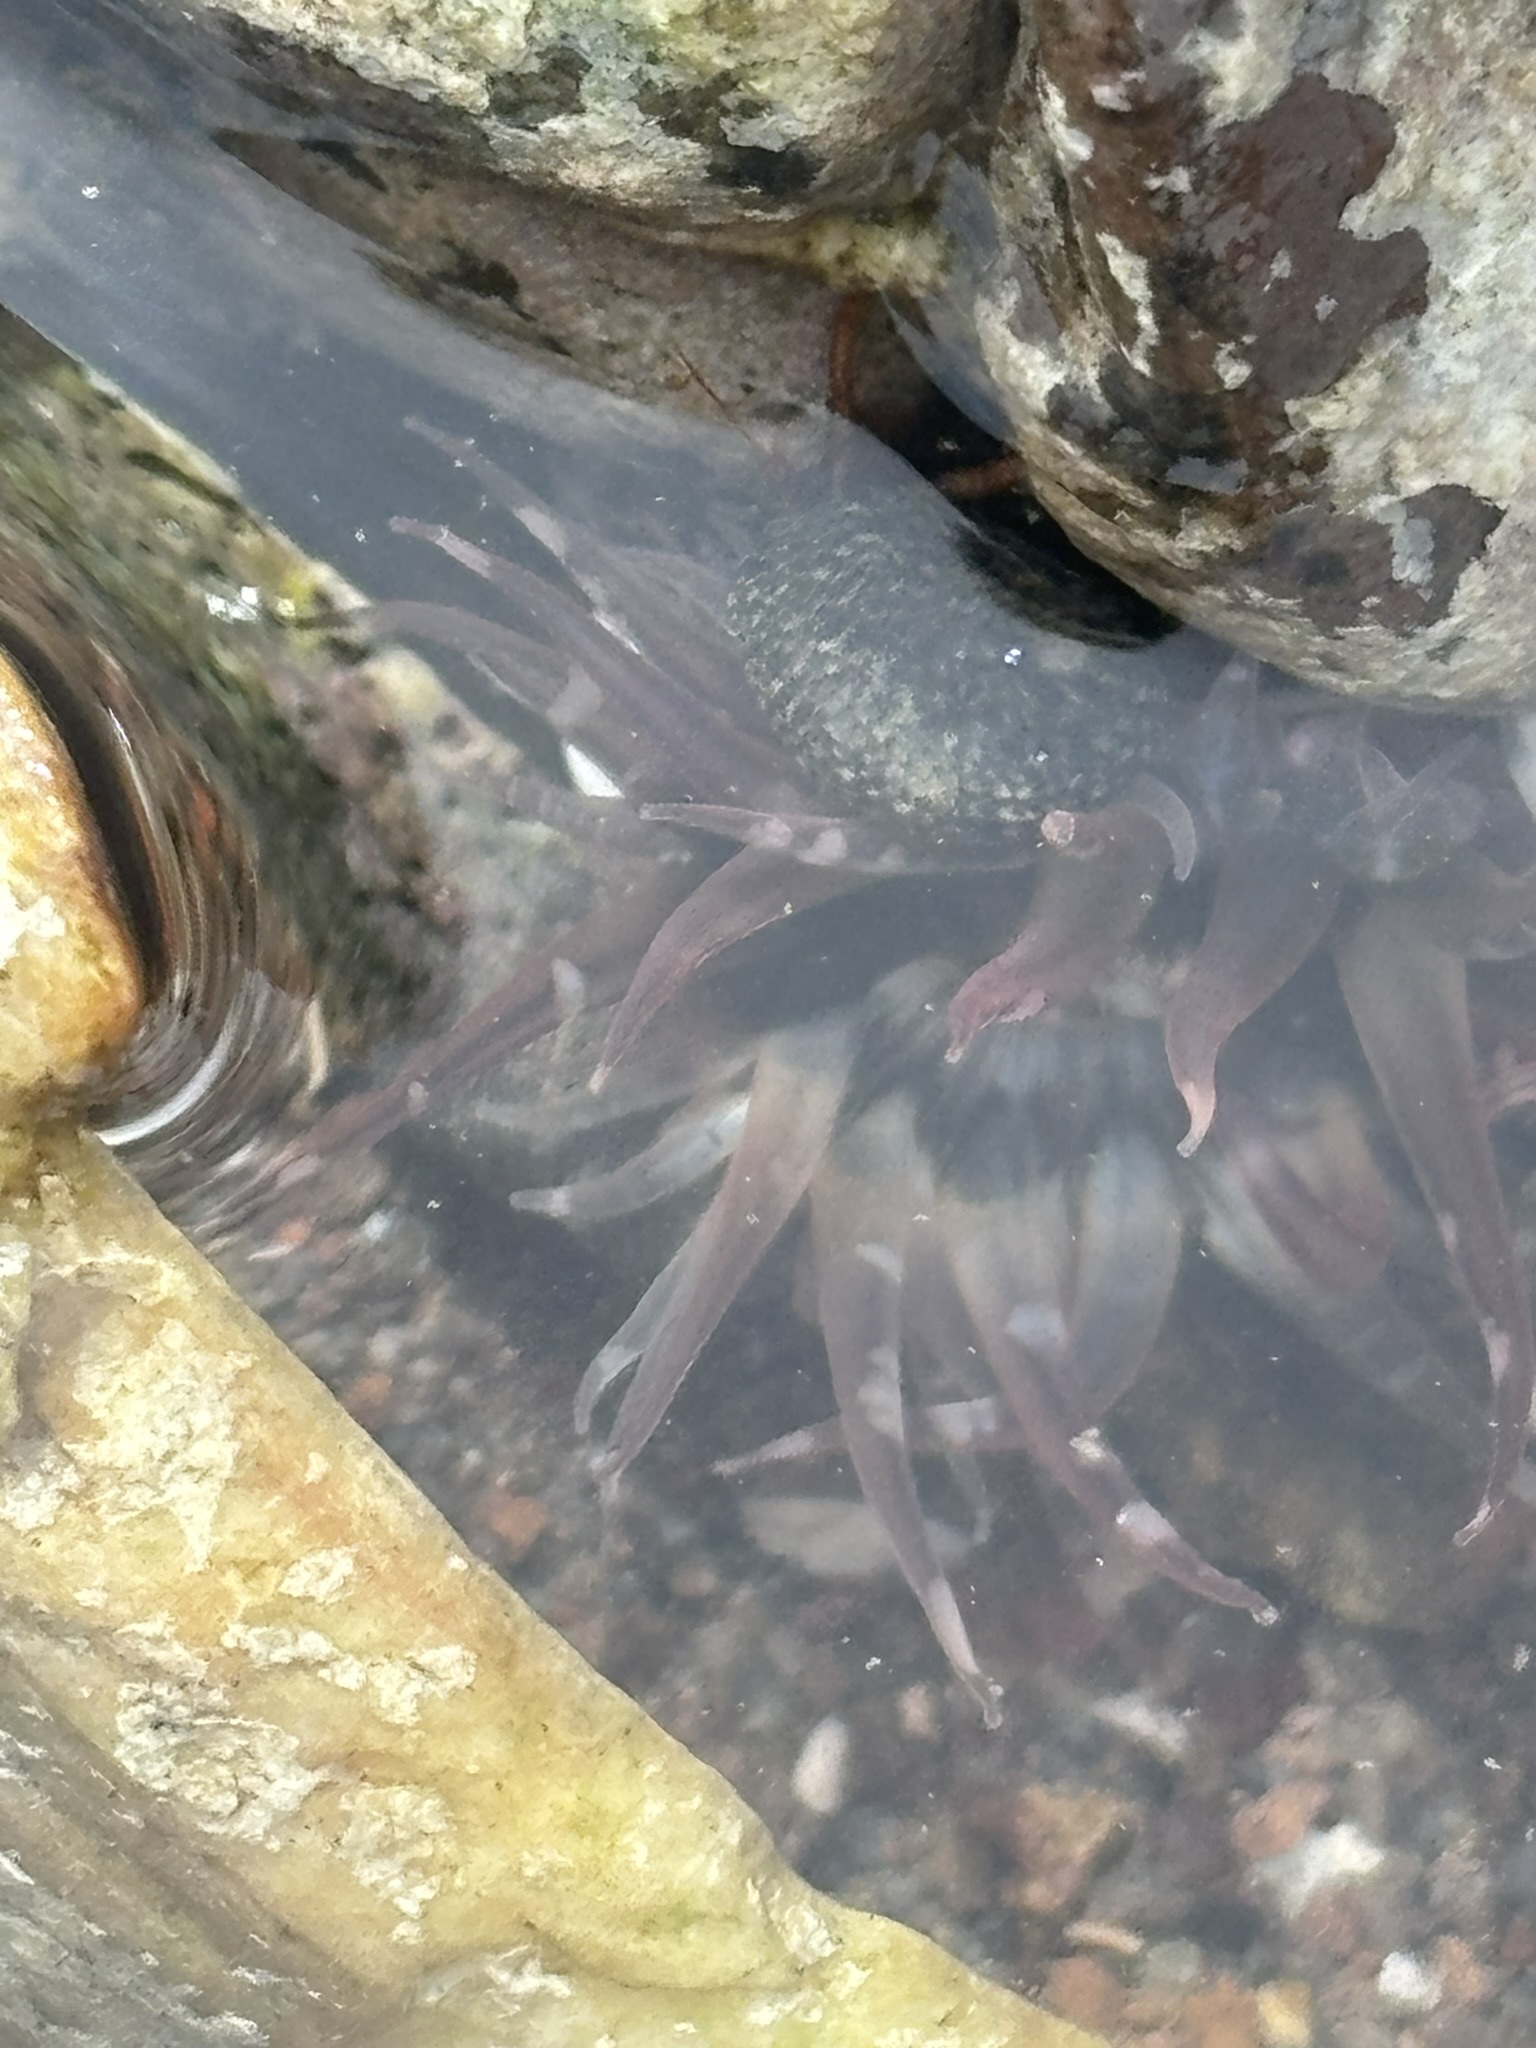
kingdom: Animalia
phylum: Cnidaria
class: Anthozoa
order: Actiniaria
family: Actiniidae
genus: Bunodosoma
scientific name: Bunodosoma californicum
